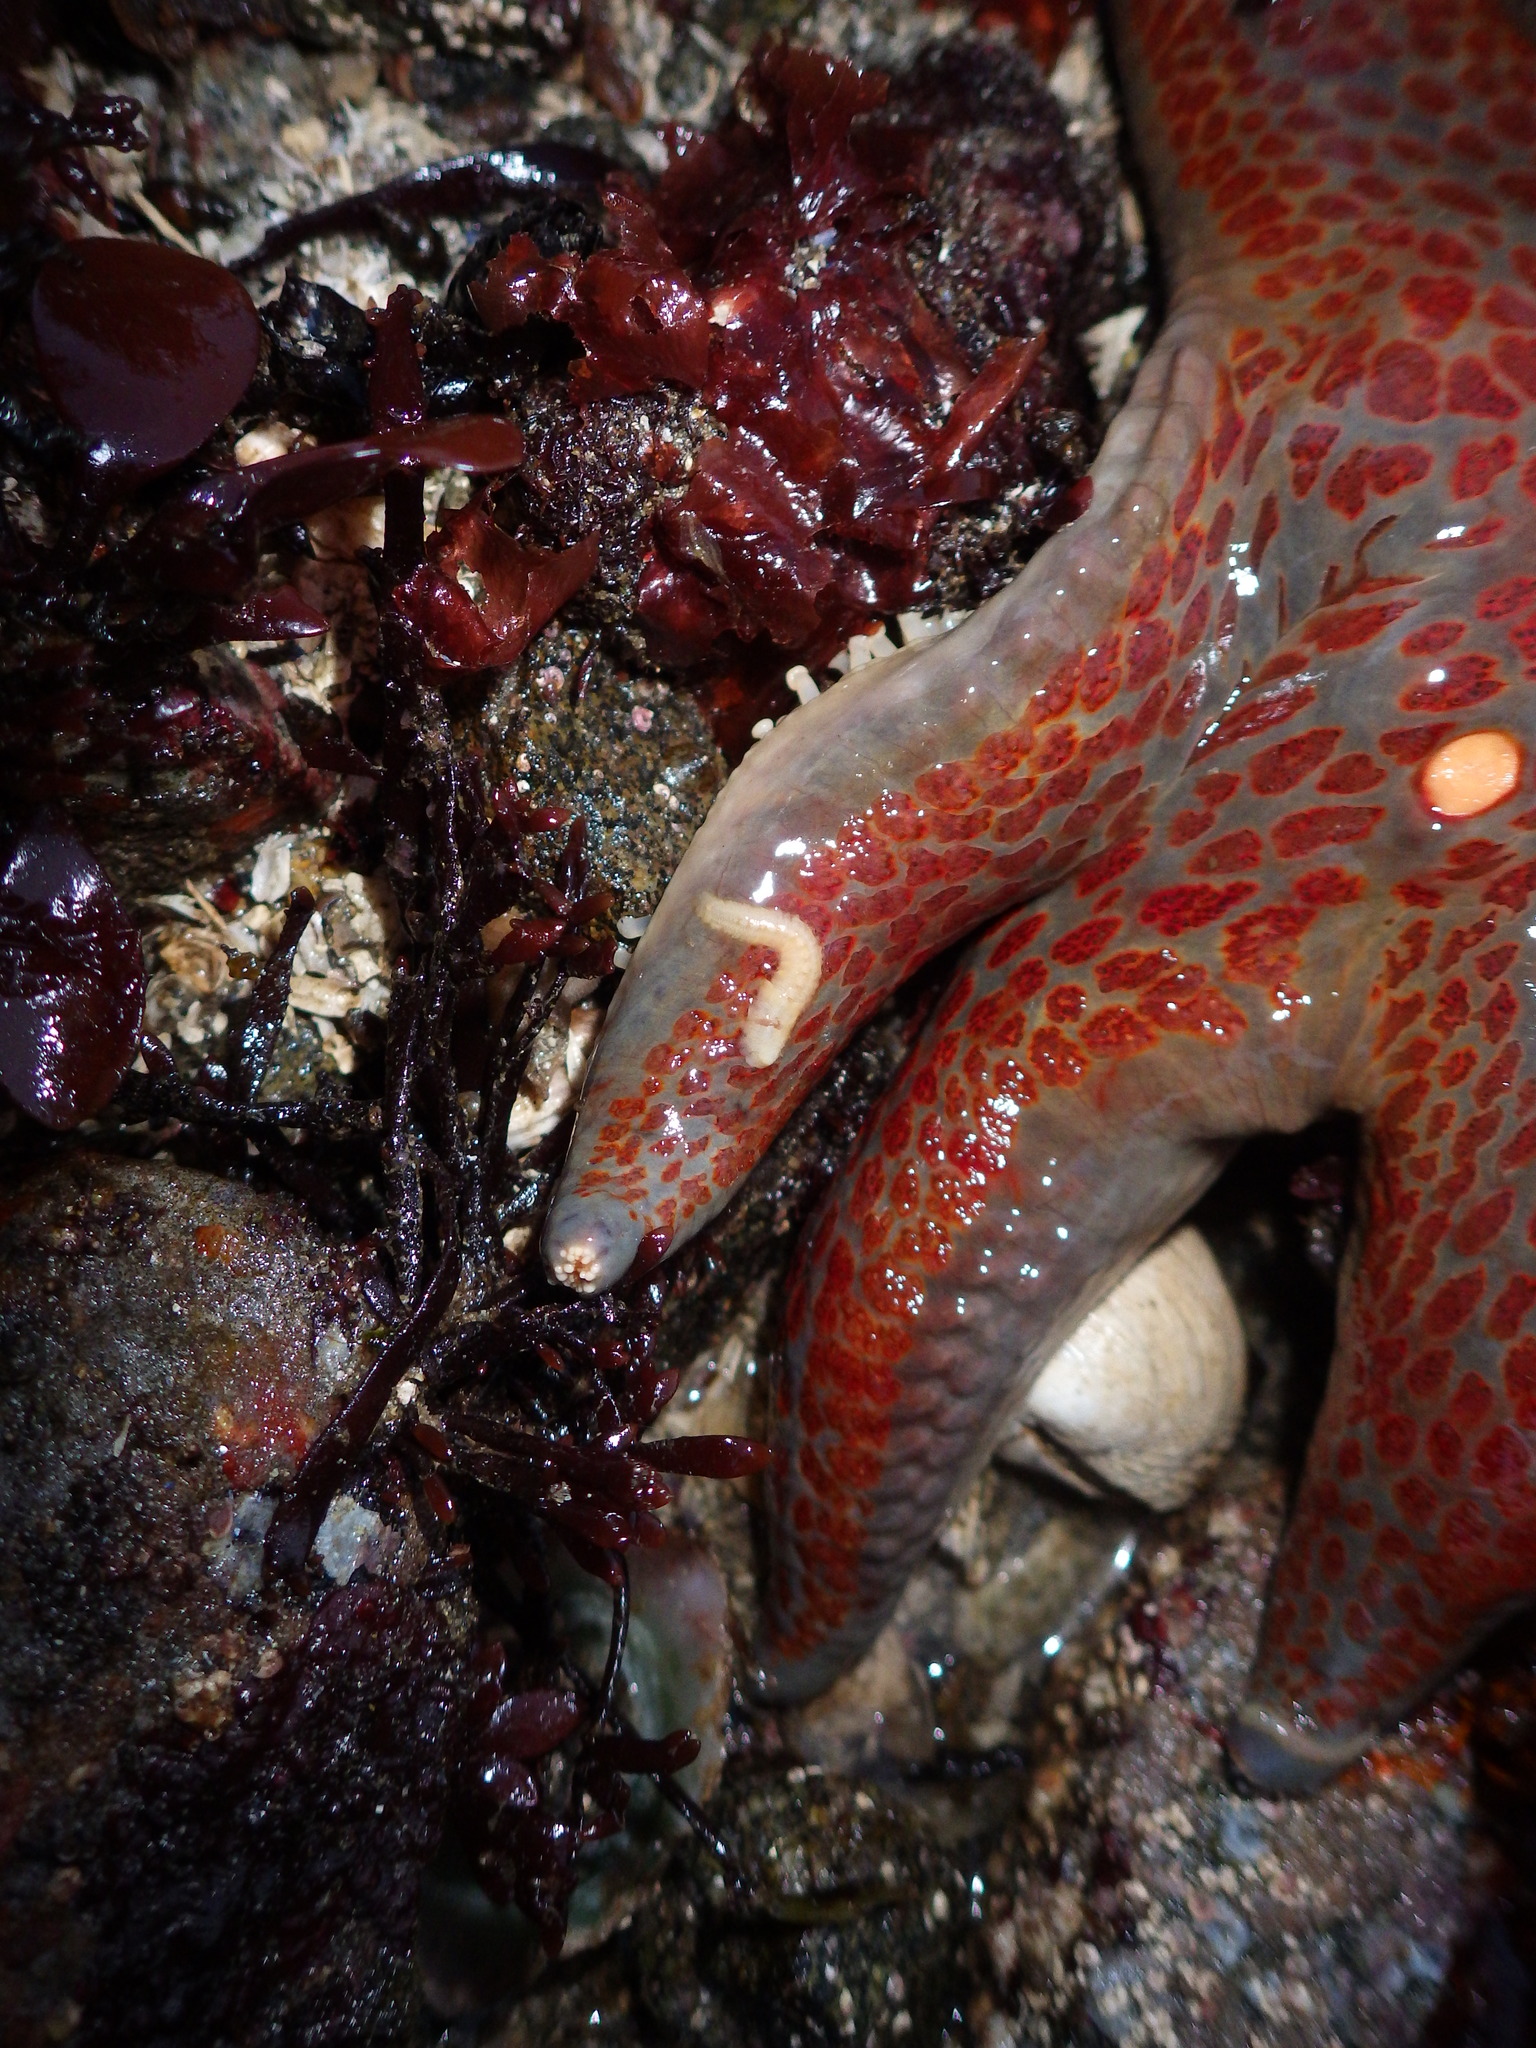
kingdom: Animalia
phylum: Echinodermata
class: Asteroidea
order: Valvatida
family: Asteropseidae
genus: Dermasterias
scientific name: Dermasterias imbricata
